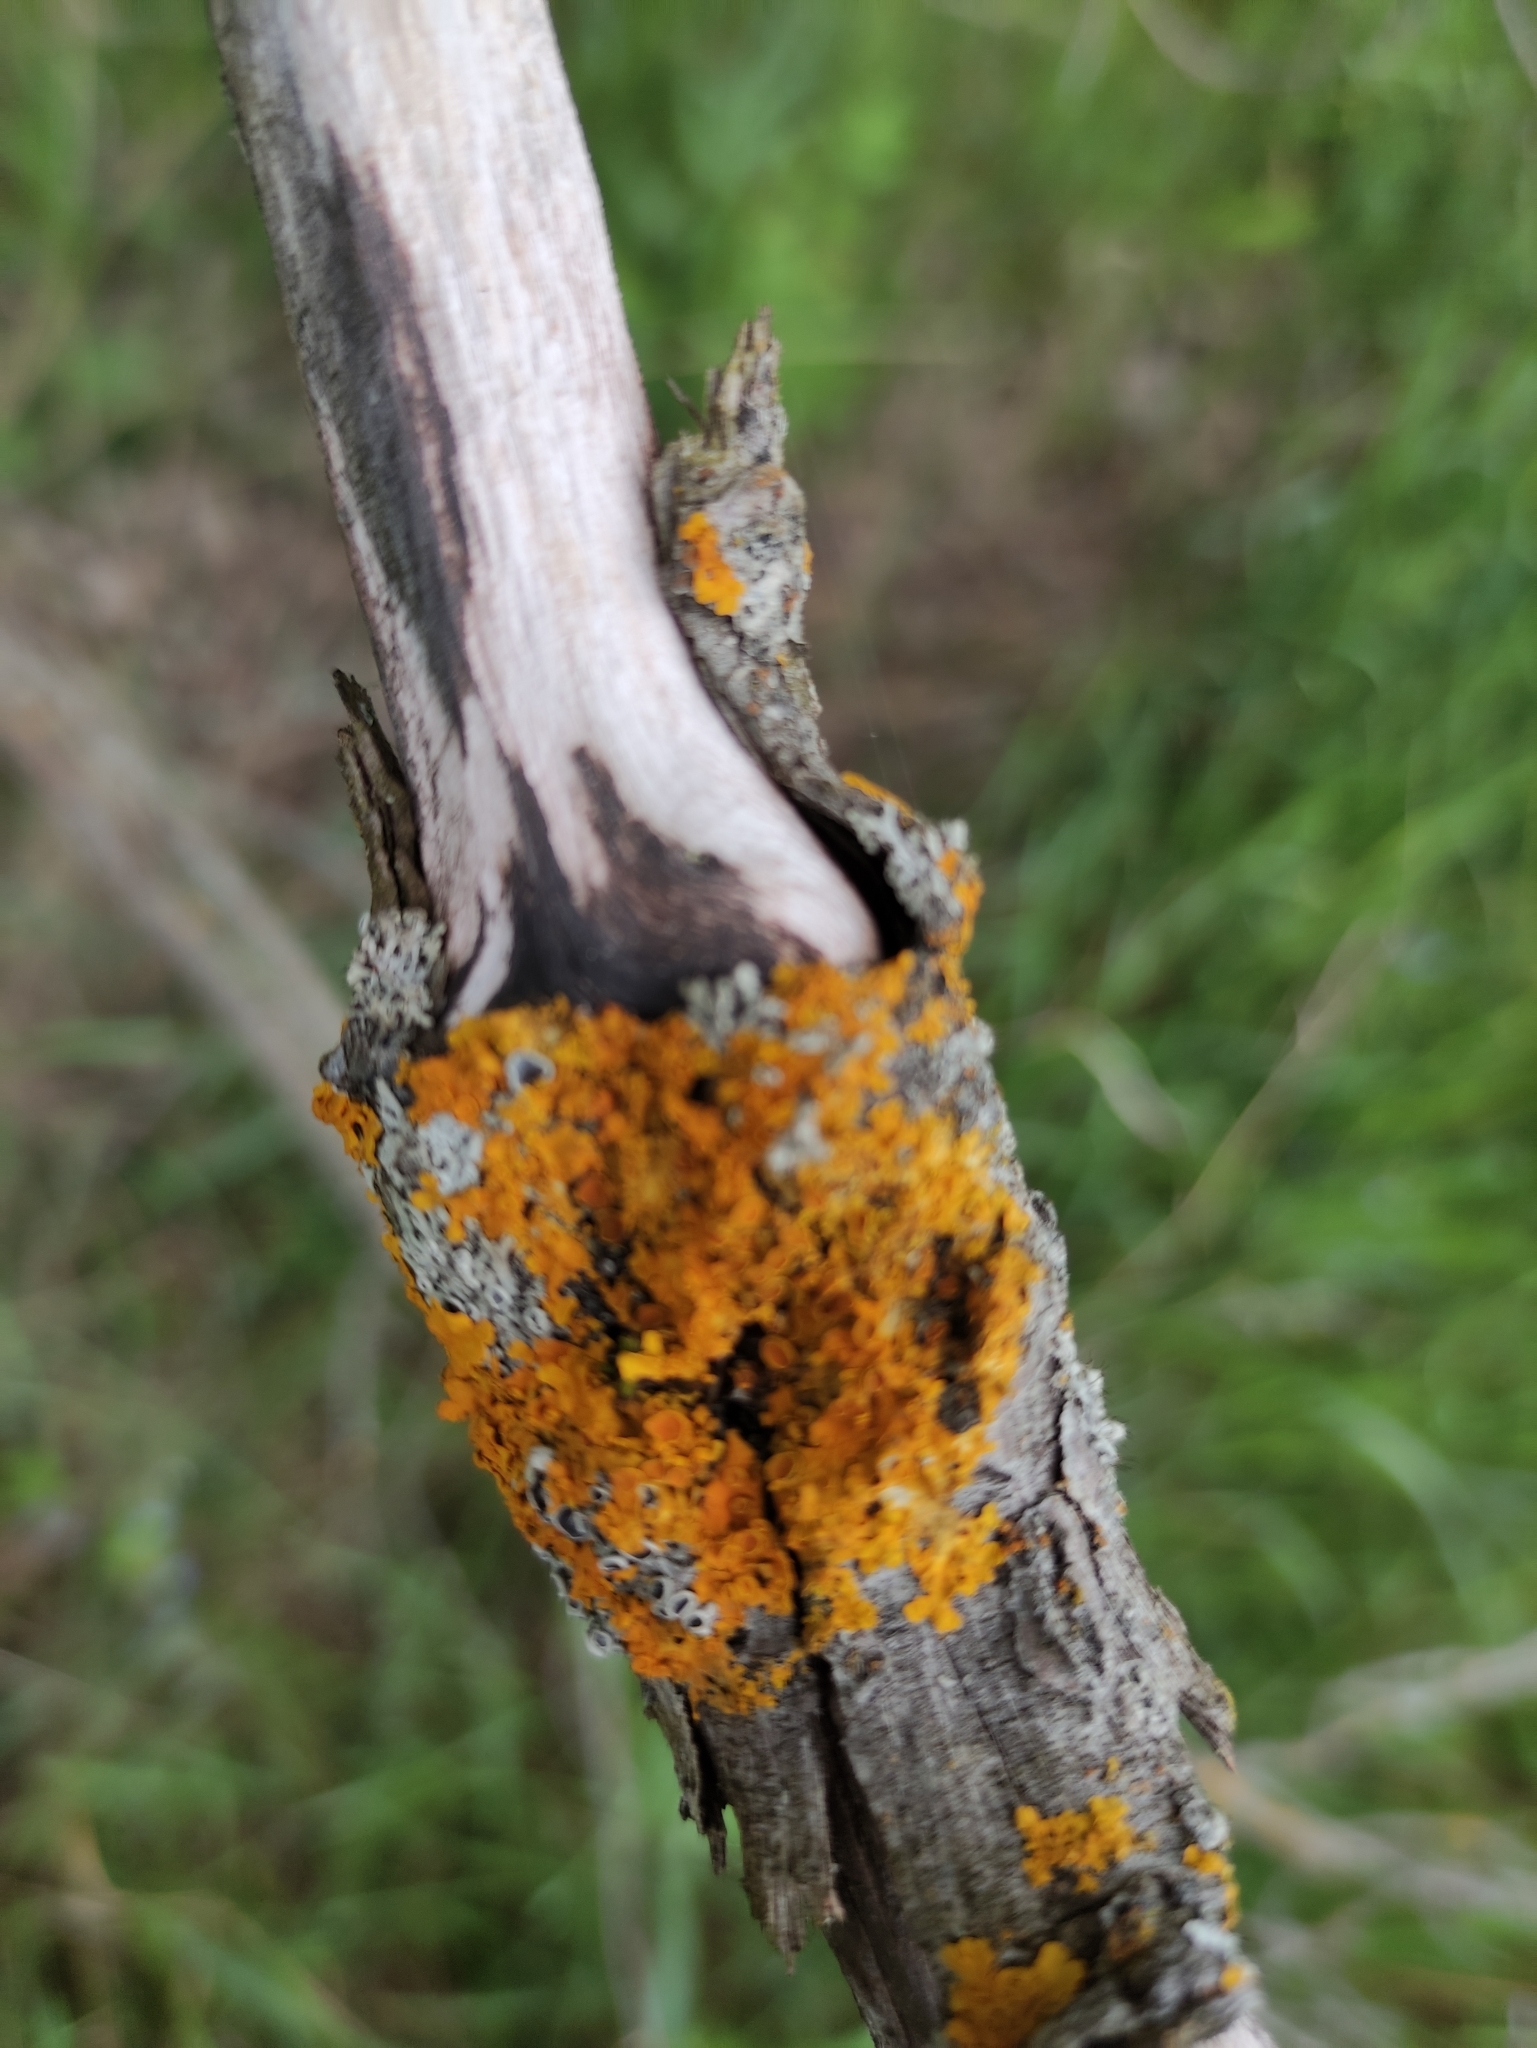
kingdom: Fungi
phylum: Ascomycota
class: Lecanoromycetes
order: Teloschistales
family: Teloschistaceae
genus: Xanthoria
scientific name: Xanthoria parietina
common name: Common orange lichen
